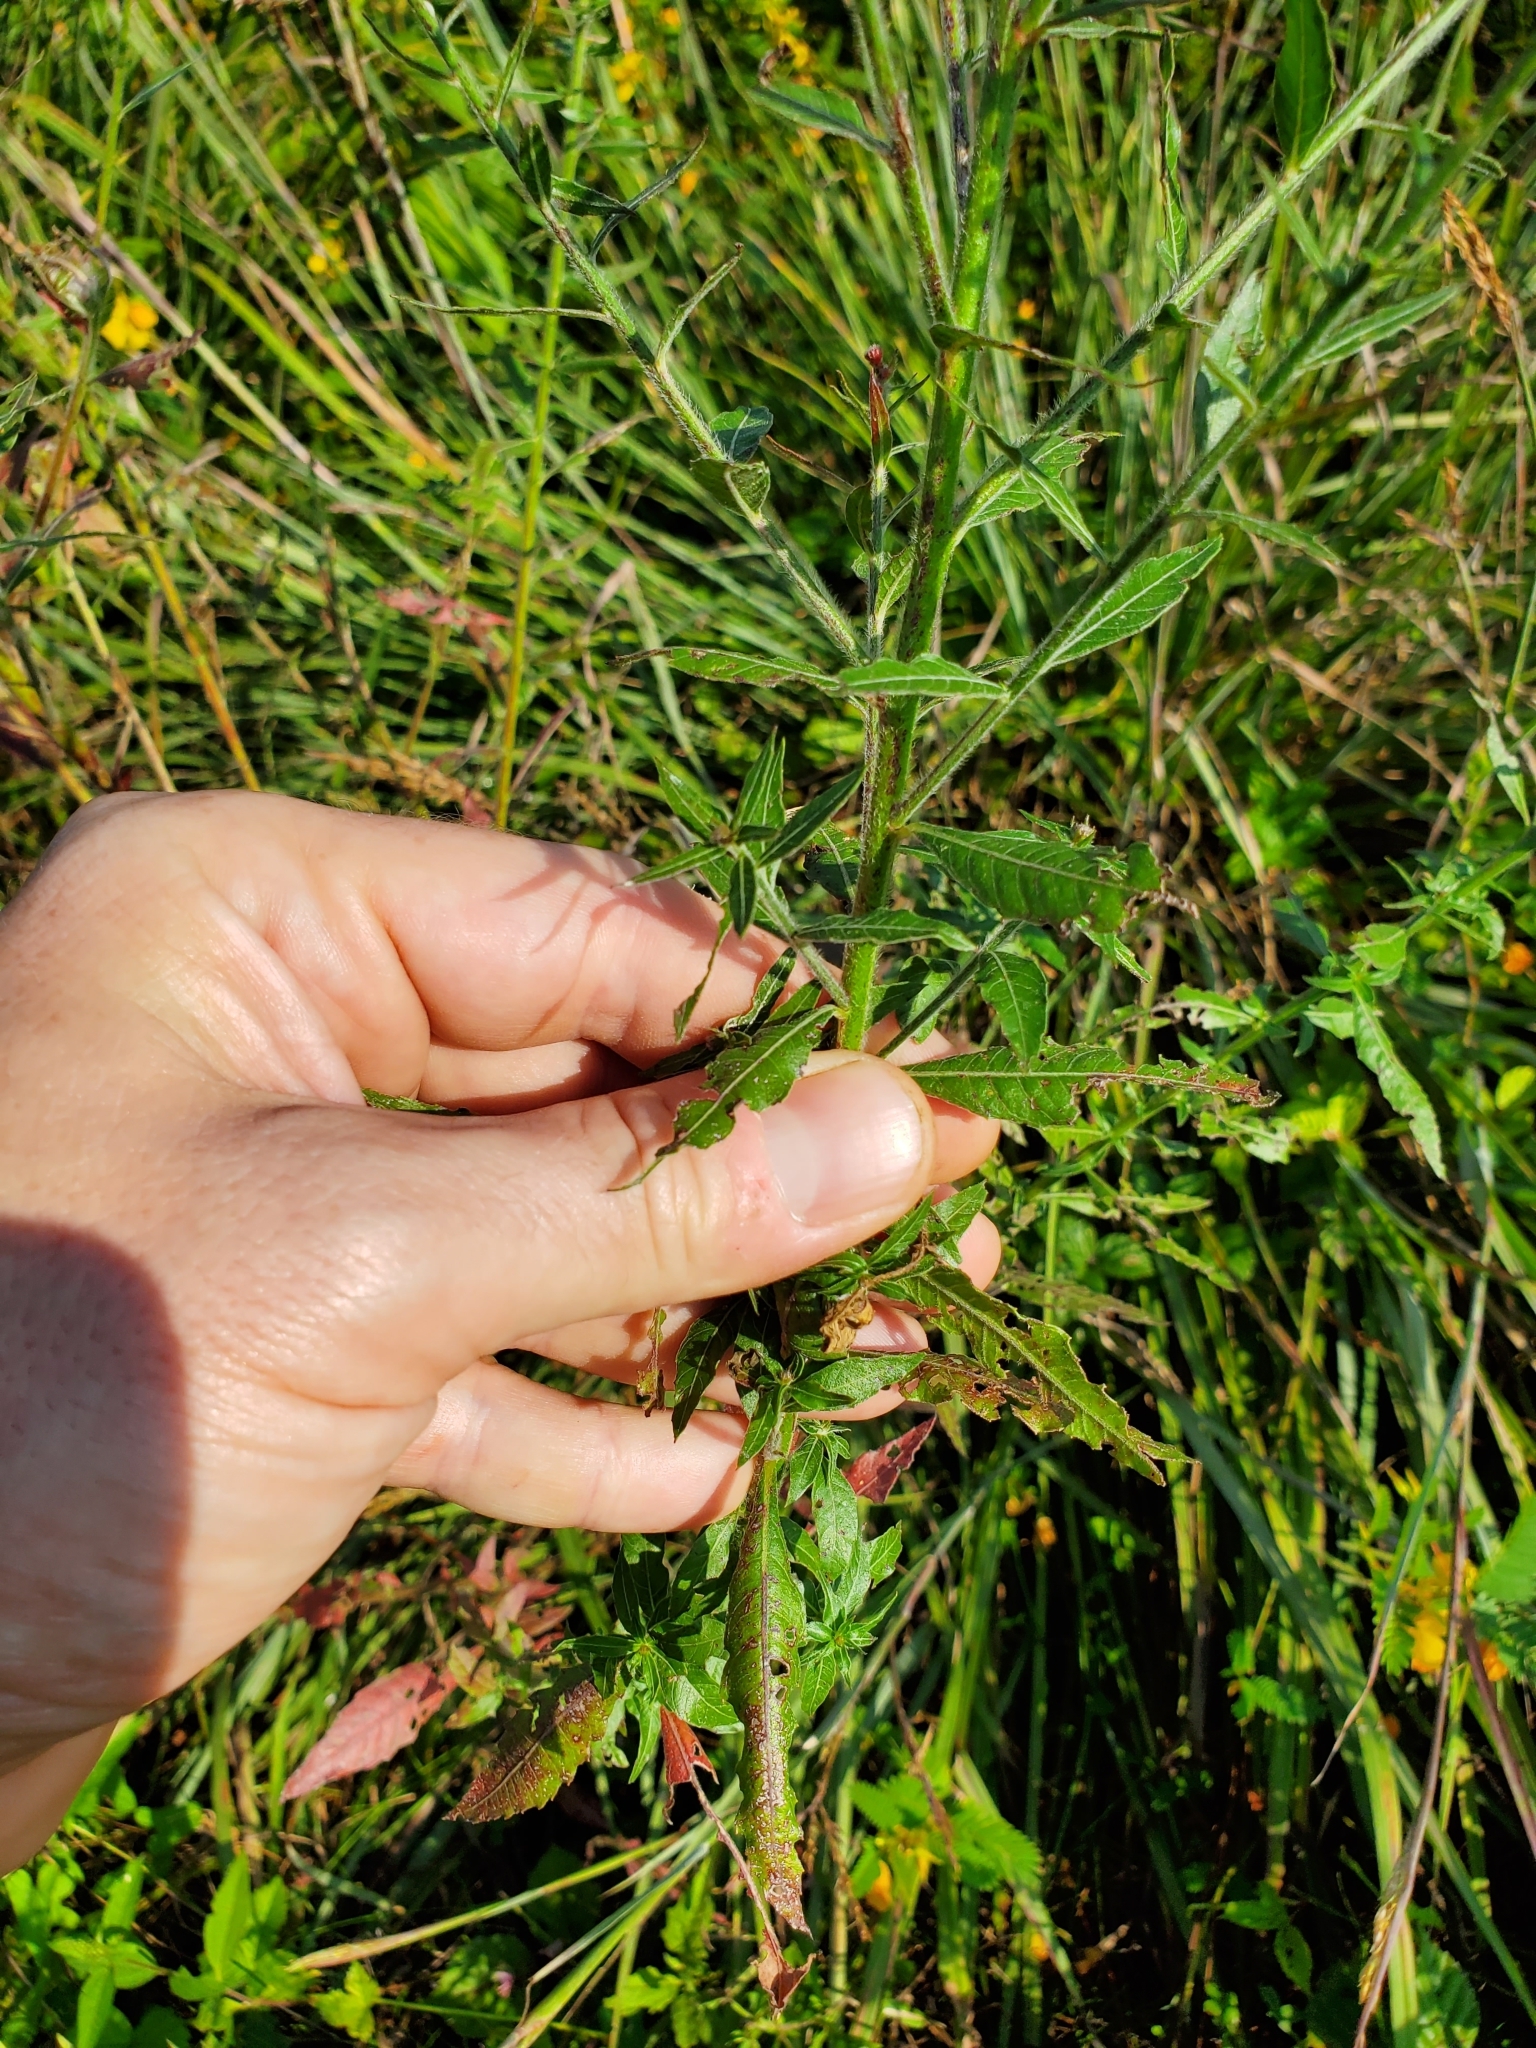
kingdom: Plantae
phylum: Tracheophyta
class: Magnoliopsida
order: Myrtales
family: Onagraceae
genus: Oenothera
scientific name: Oenothera gaura
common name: Biennial beeblossom
